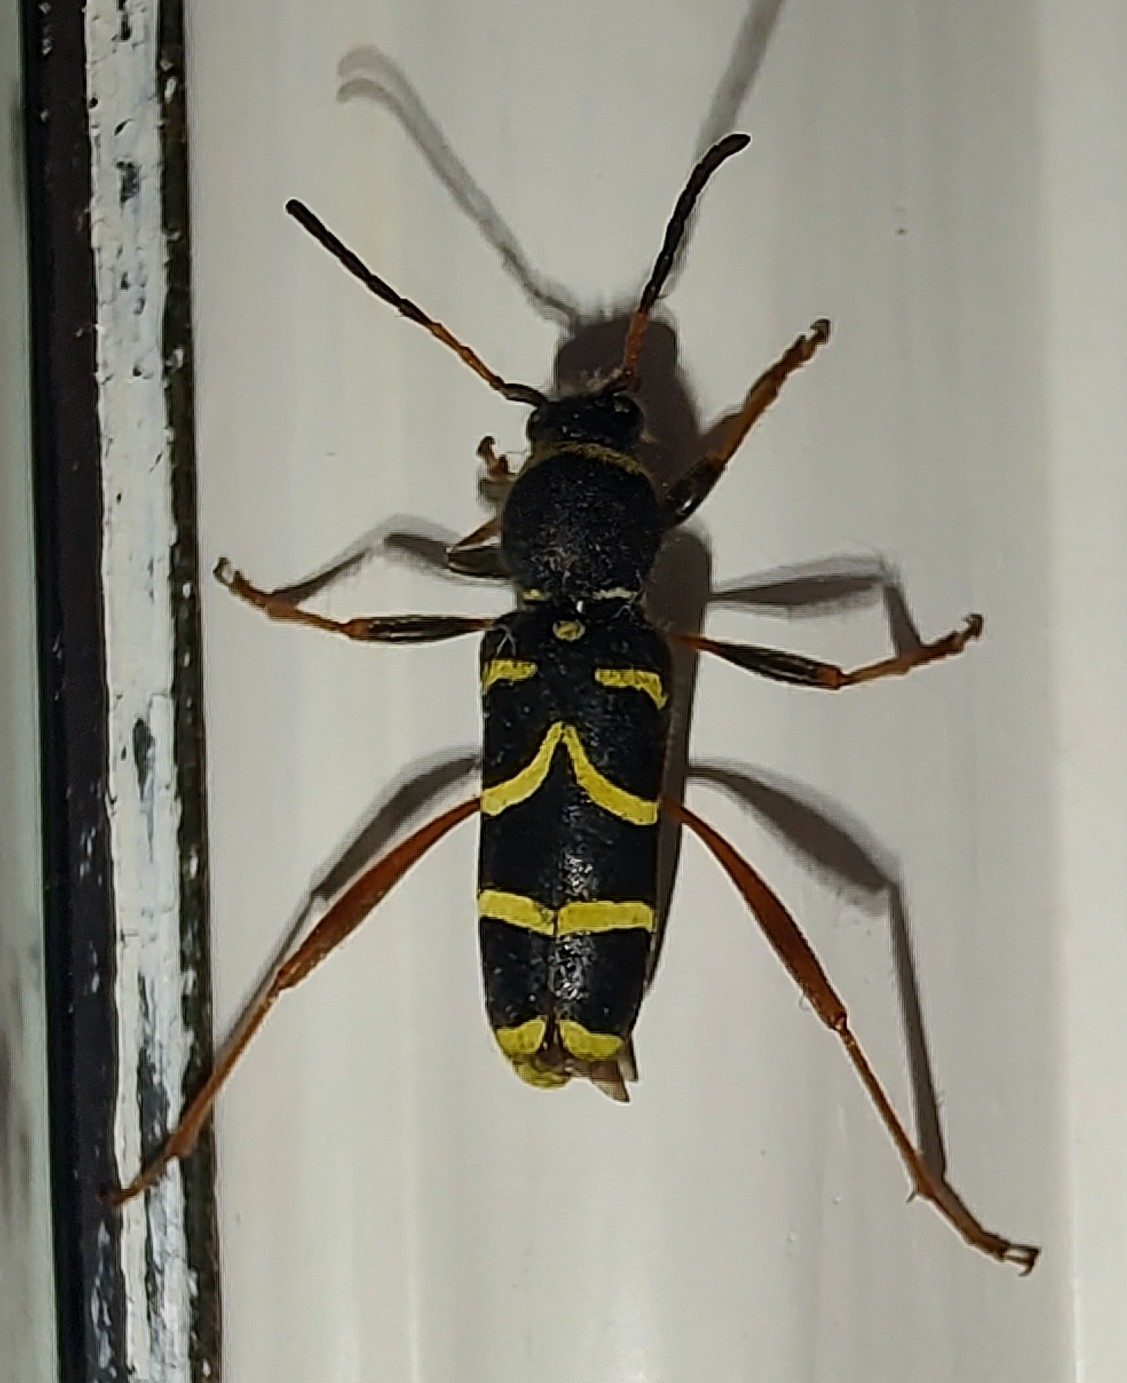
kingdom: Animalia
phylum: Arthropoda
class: Insecta
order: Coleoptera
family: Cerambycidae
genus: Clytus
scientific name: Clytus arietis
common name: Wasp beetle
